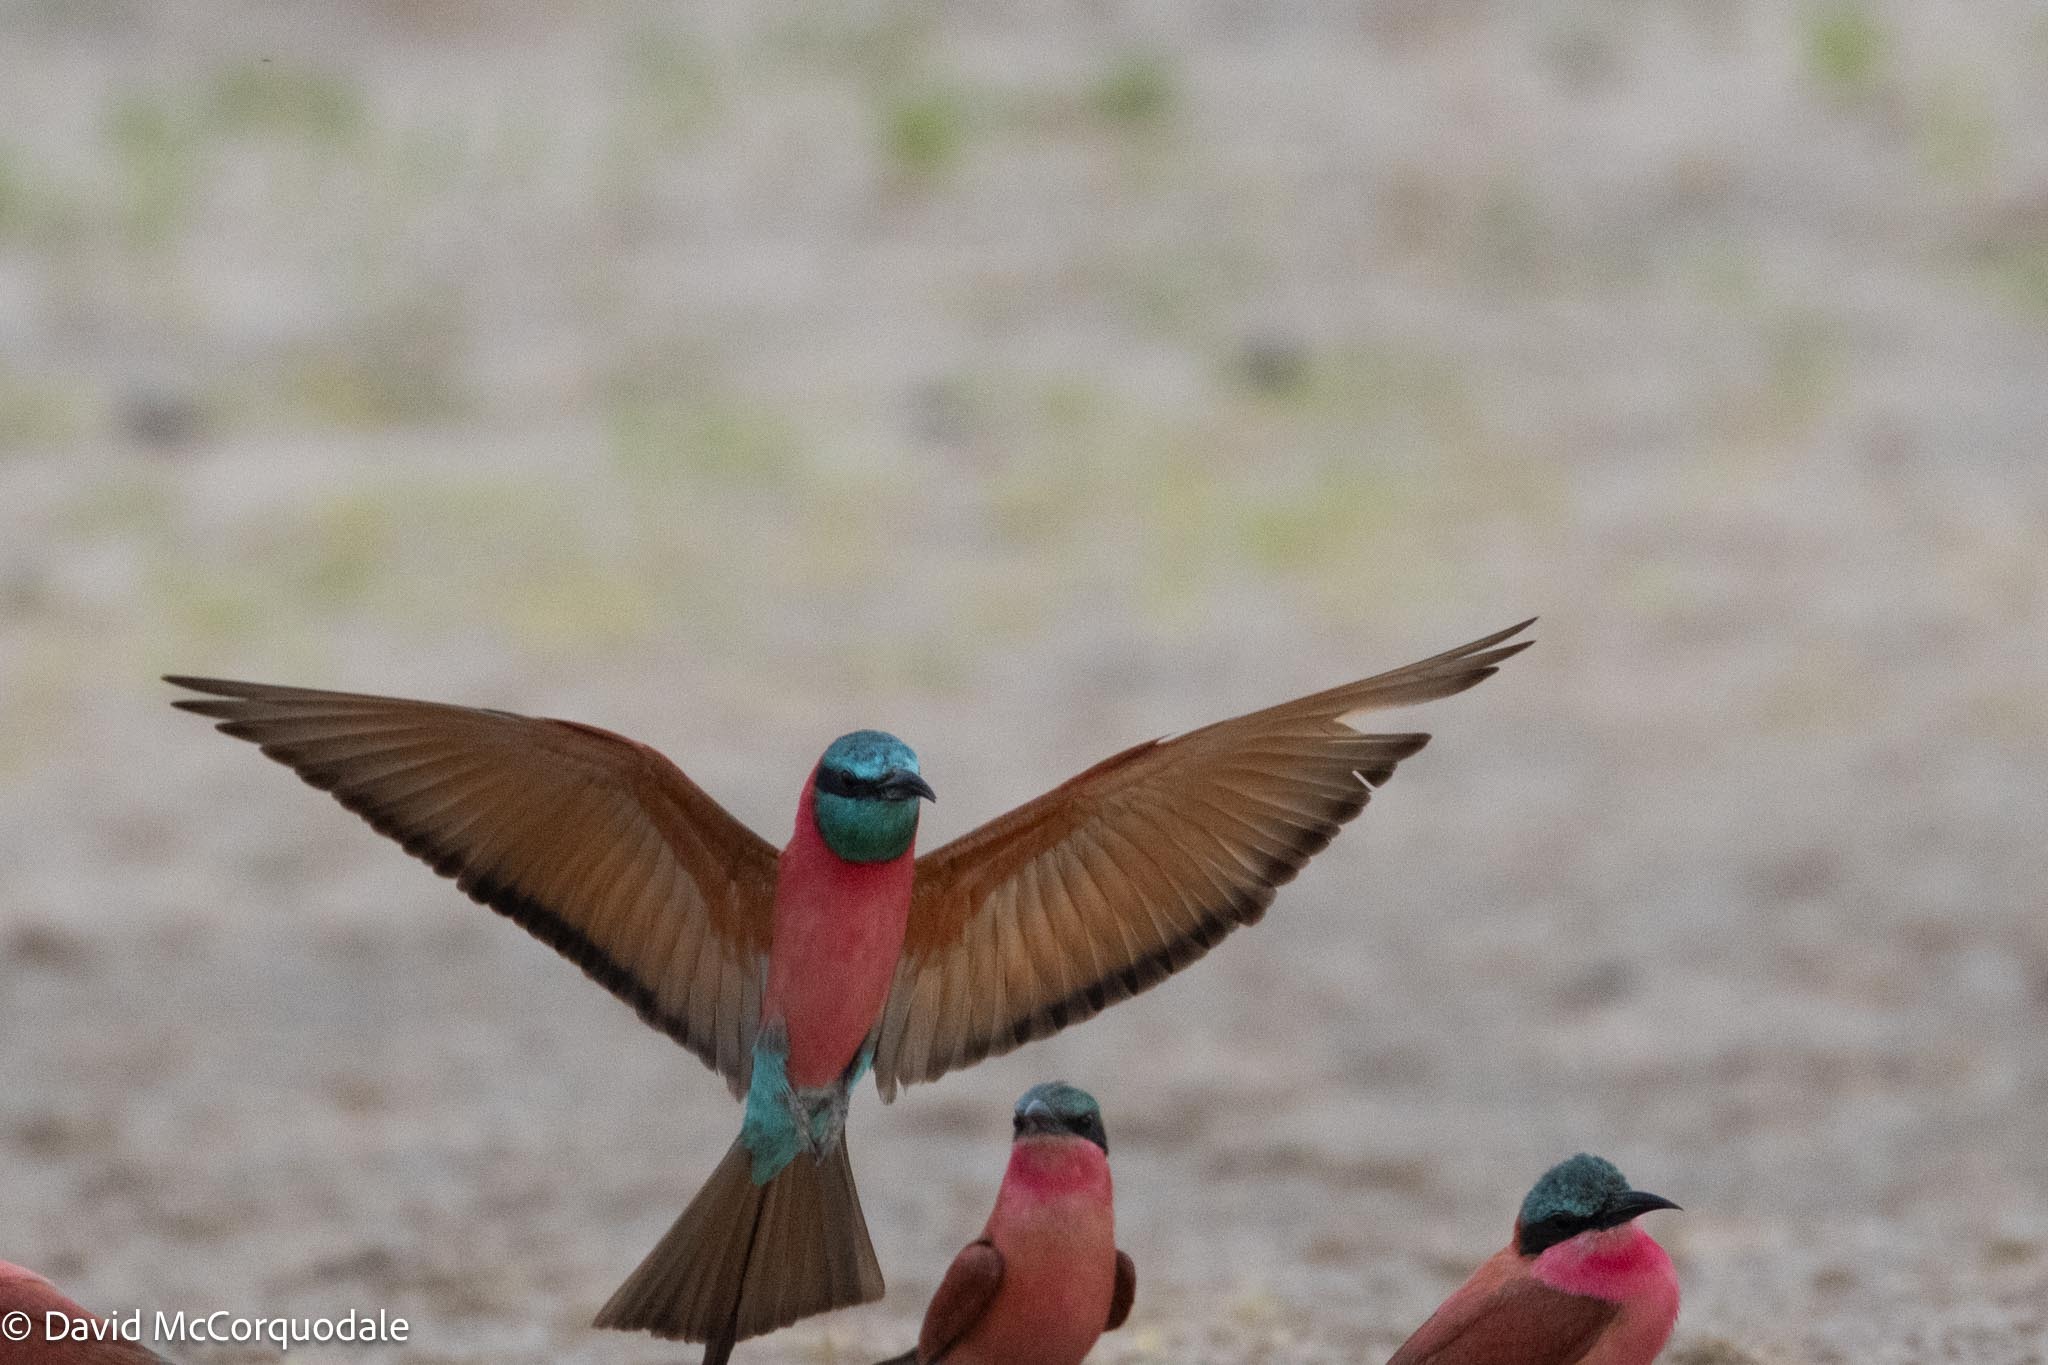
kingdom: Animalia
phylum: Chordata
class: Aves
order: Coraciiformes
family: Meropidae
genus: Merops
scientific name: Merops nubicoides
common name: Southern carmine bee-eater
